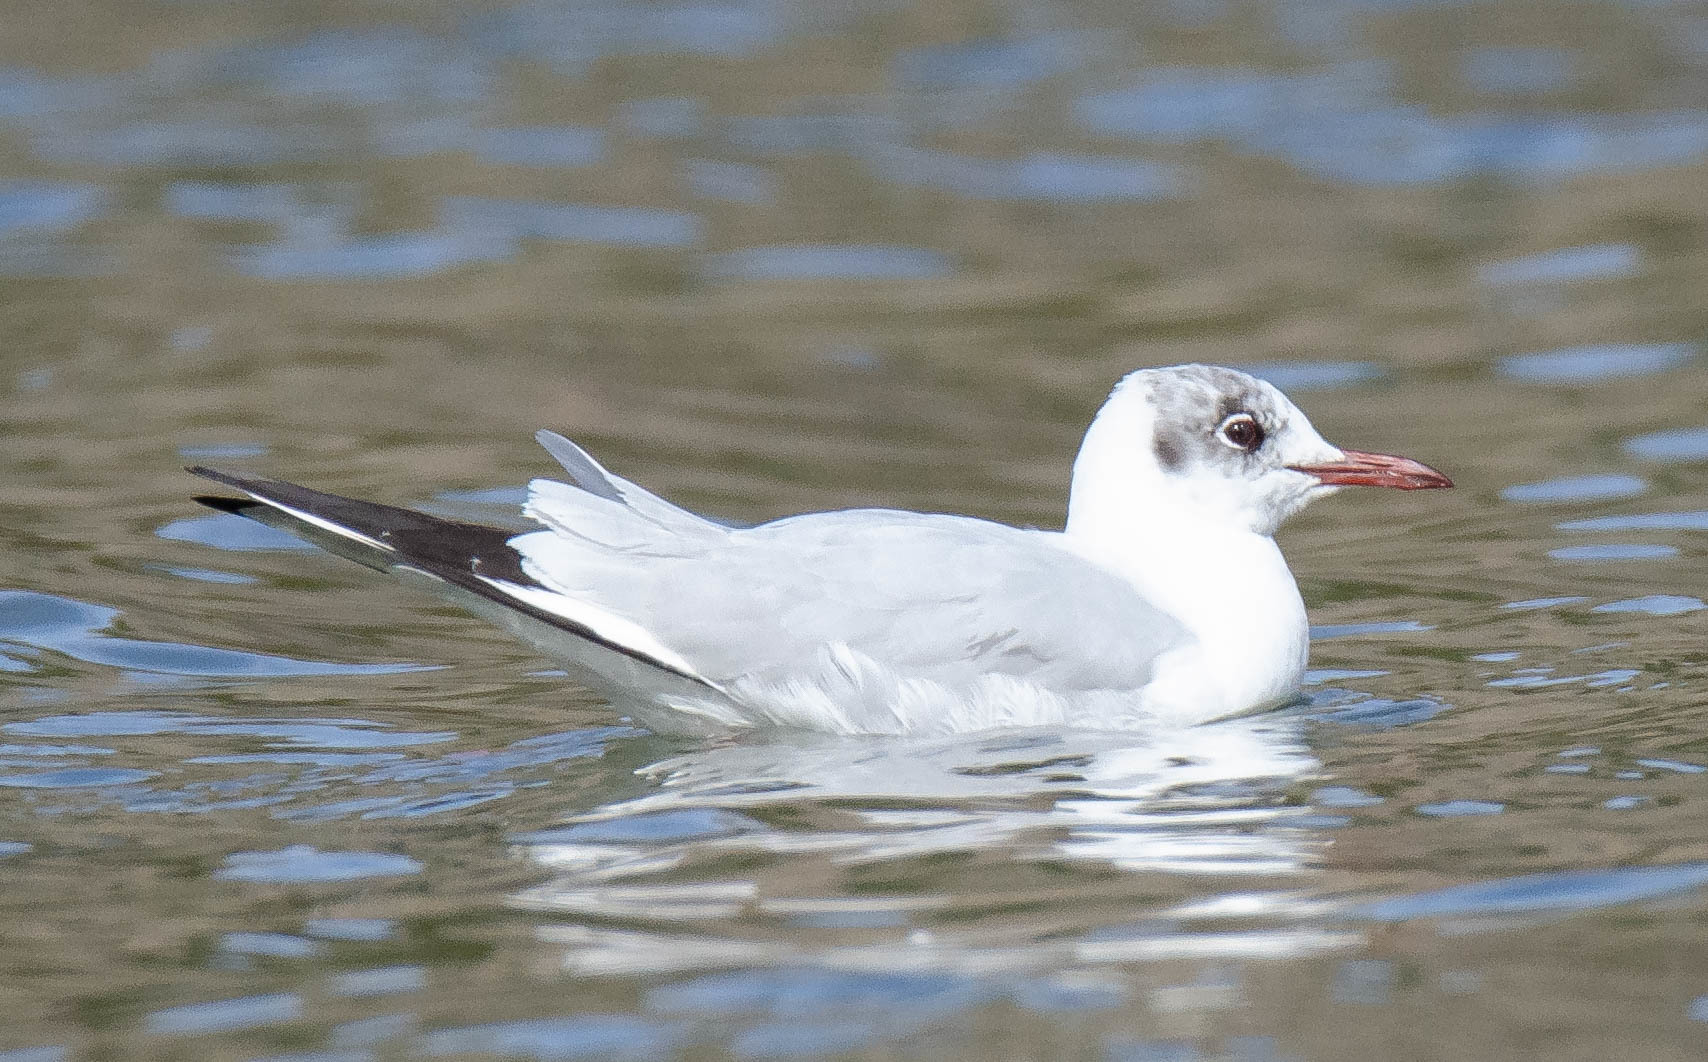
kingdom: Animalia
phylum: Chordata
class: Aves
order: Charadriiformes
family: Laridae
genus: Chroicocephalus
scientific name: Chroicocephalus ridibundus
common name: Black-headed gull
